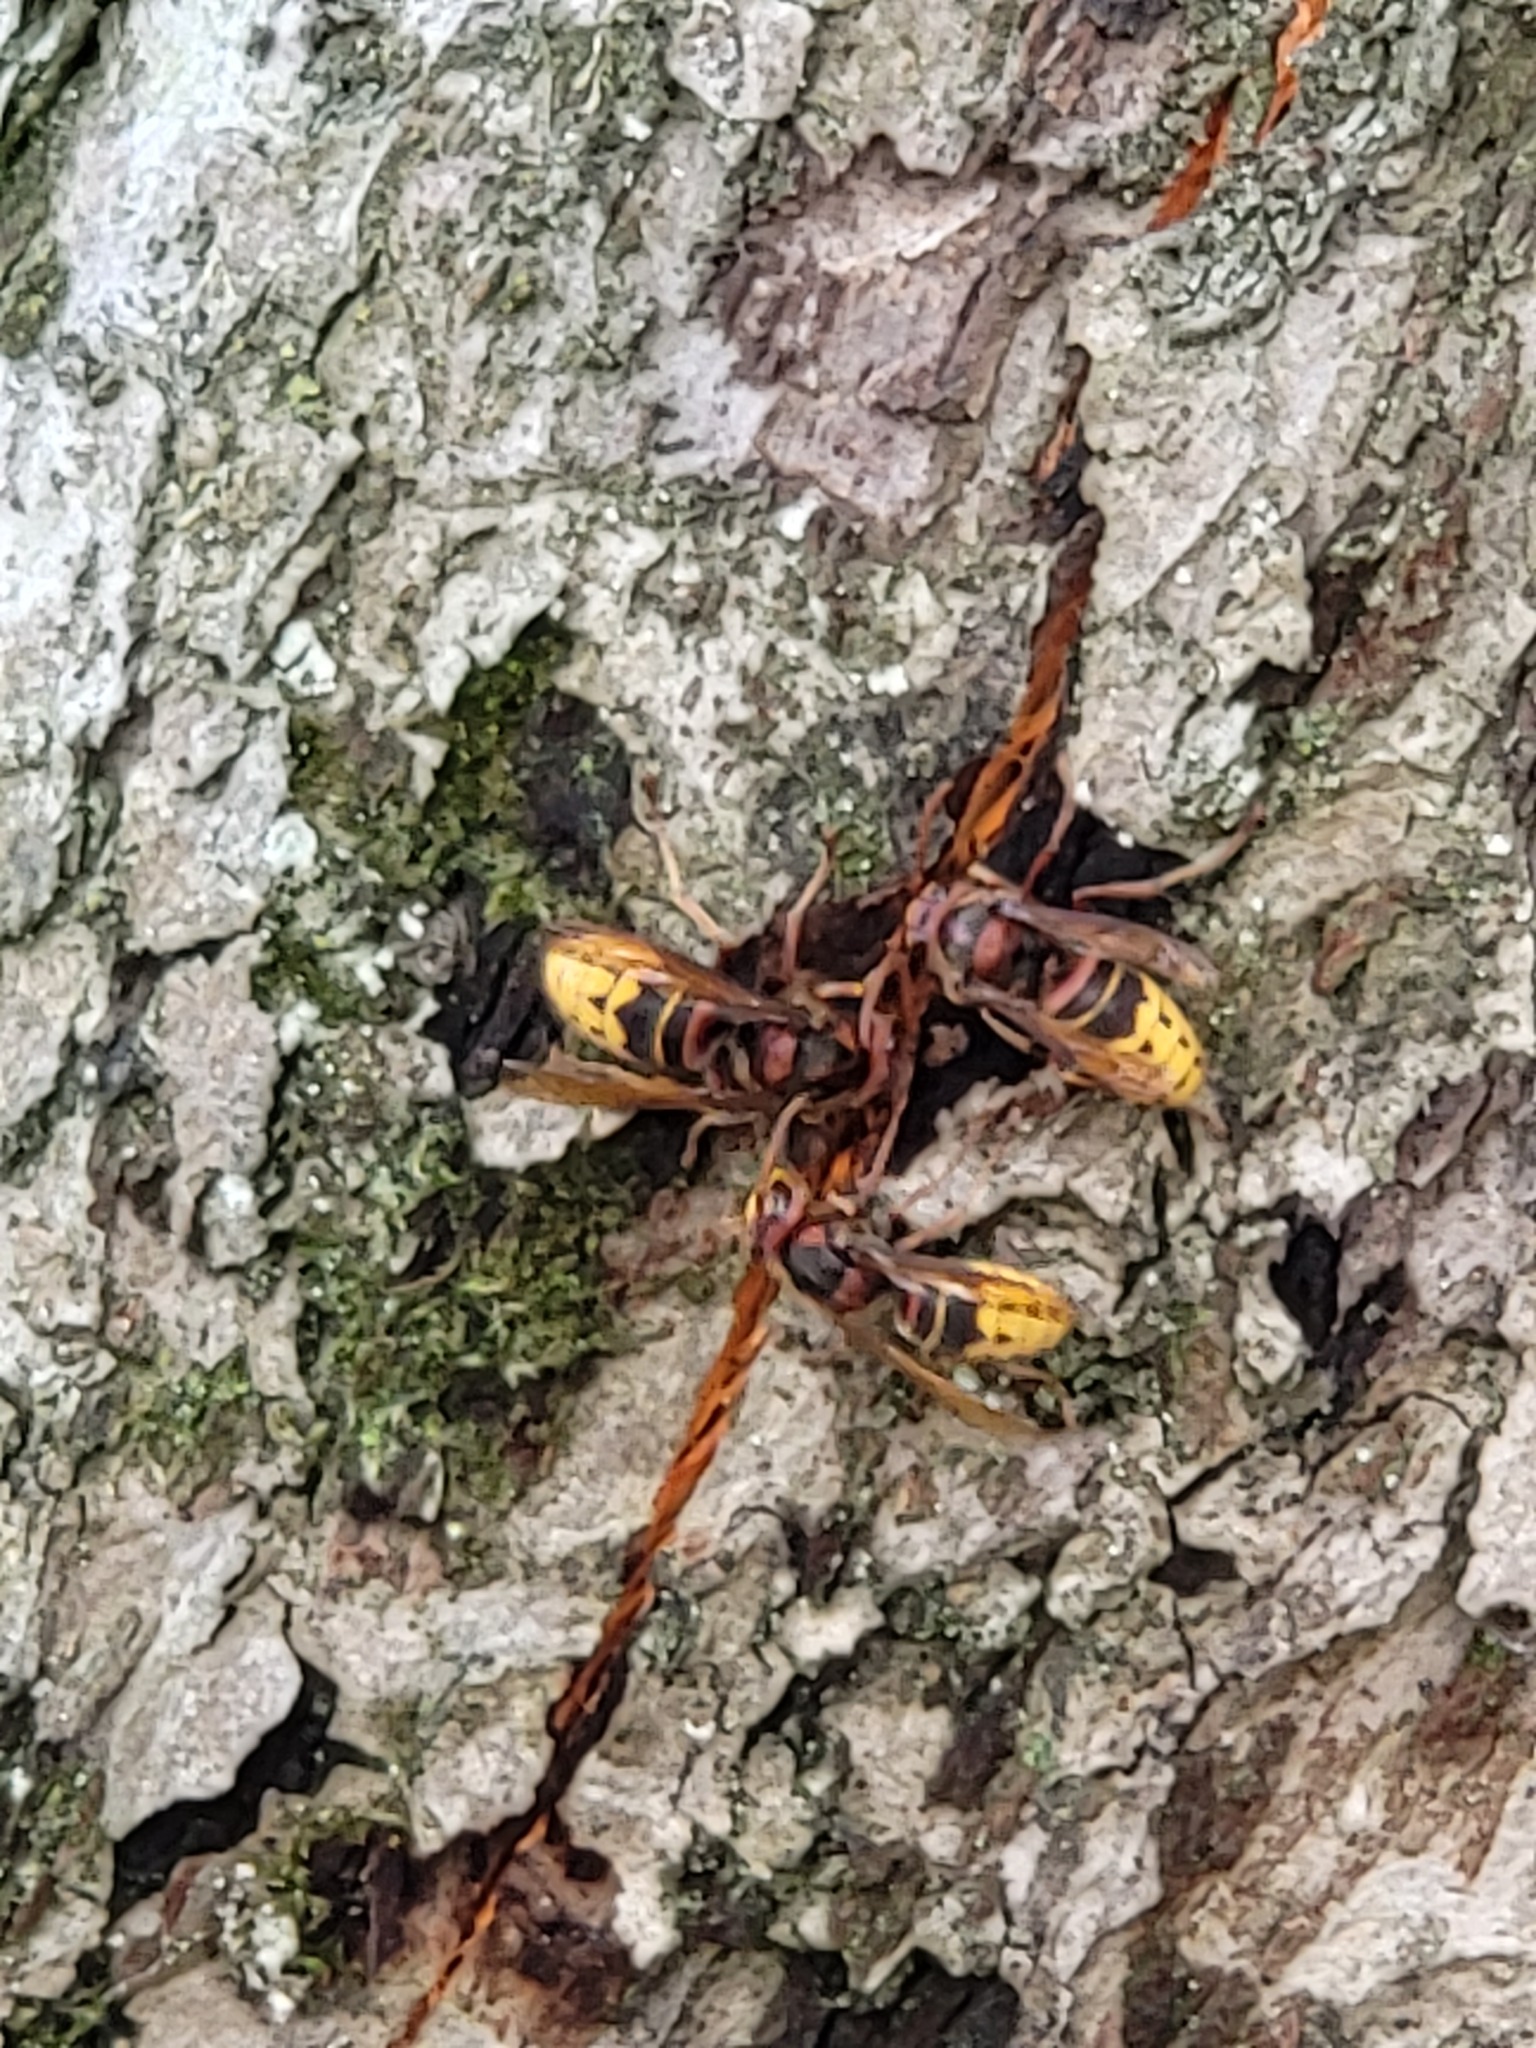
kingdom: Animalia
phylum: Arthropoda
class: Insecta
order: Hymenoptera
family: Vespidae
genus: Vespa
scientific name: Vespa crabro
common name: Hornet
